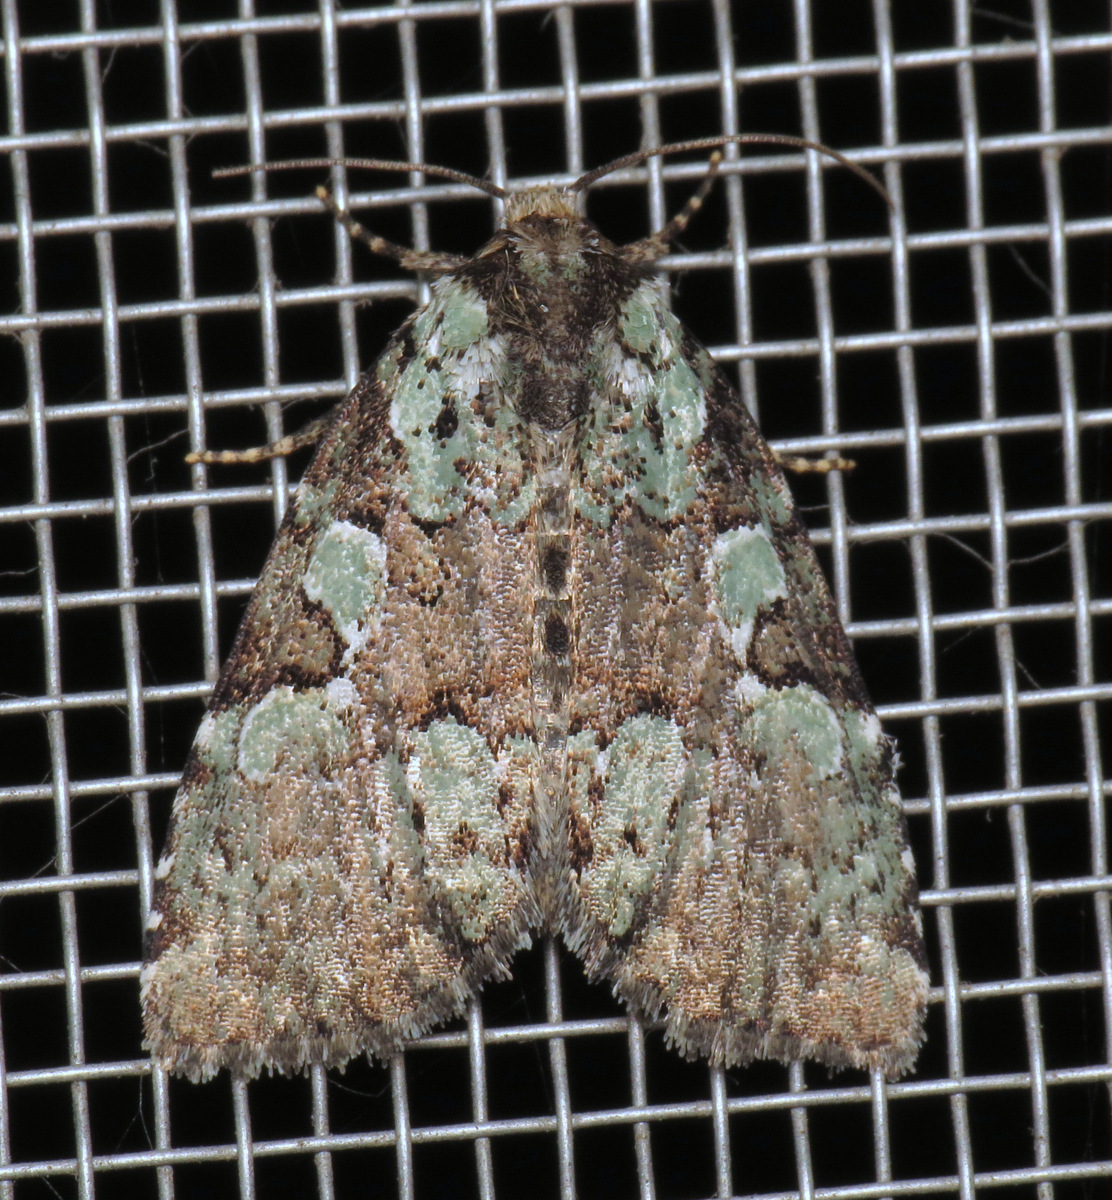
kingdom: Animalia
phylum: Arthropoda
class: Insecta
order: Lepidoptera
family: Noctuidae
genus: Leuconycta
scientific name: Leuconycta lepidula
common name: Marbled-green leuconycta moth
